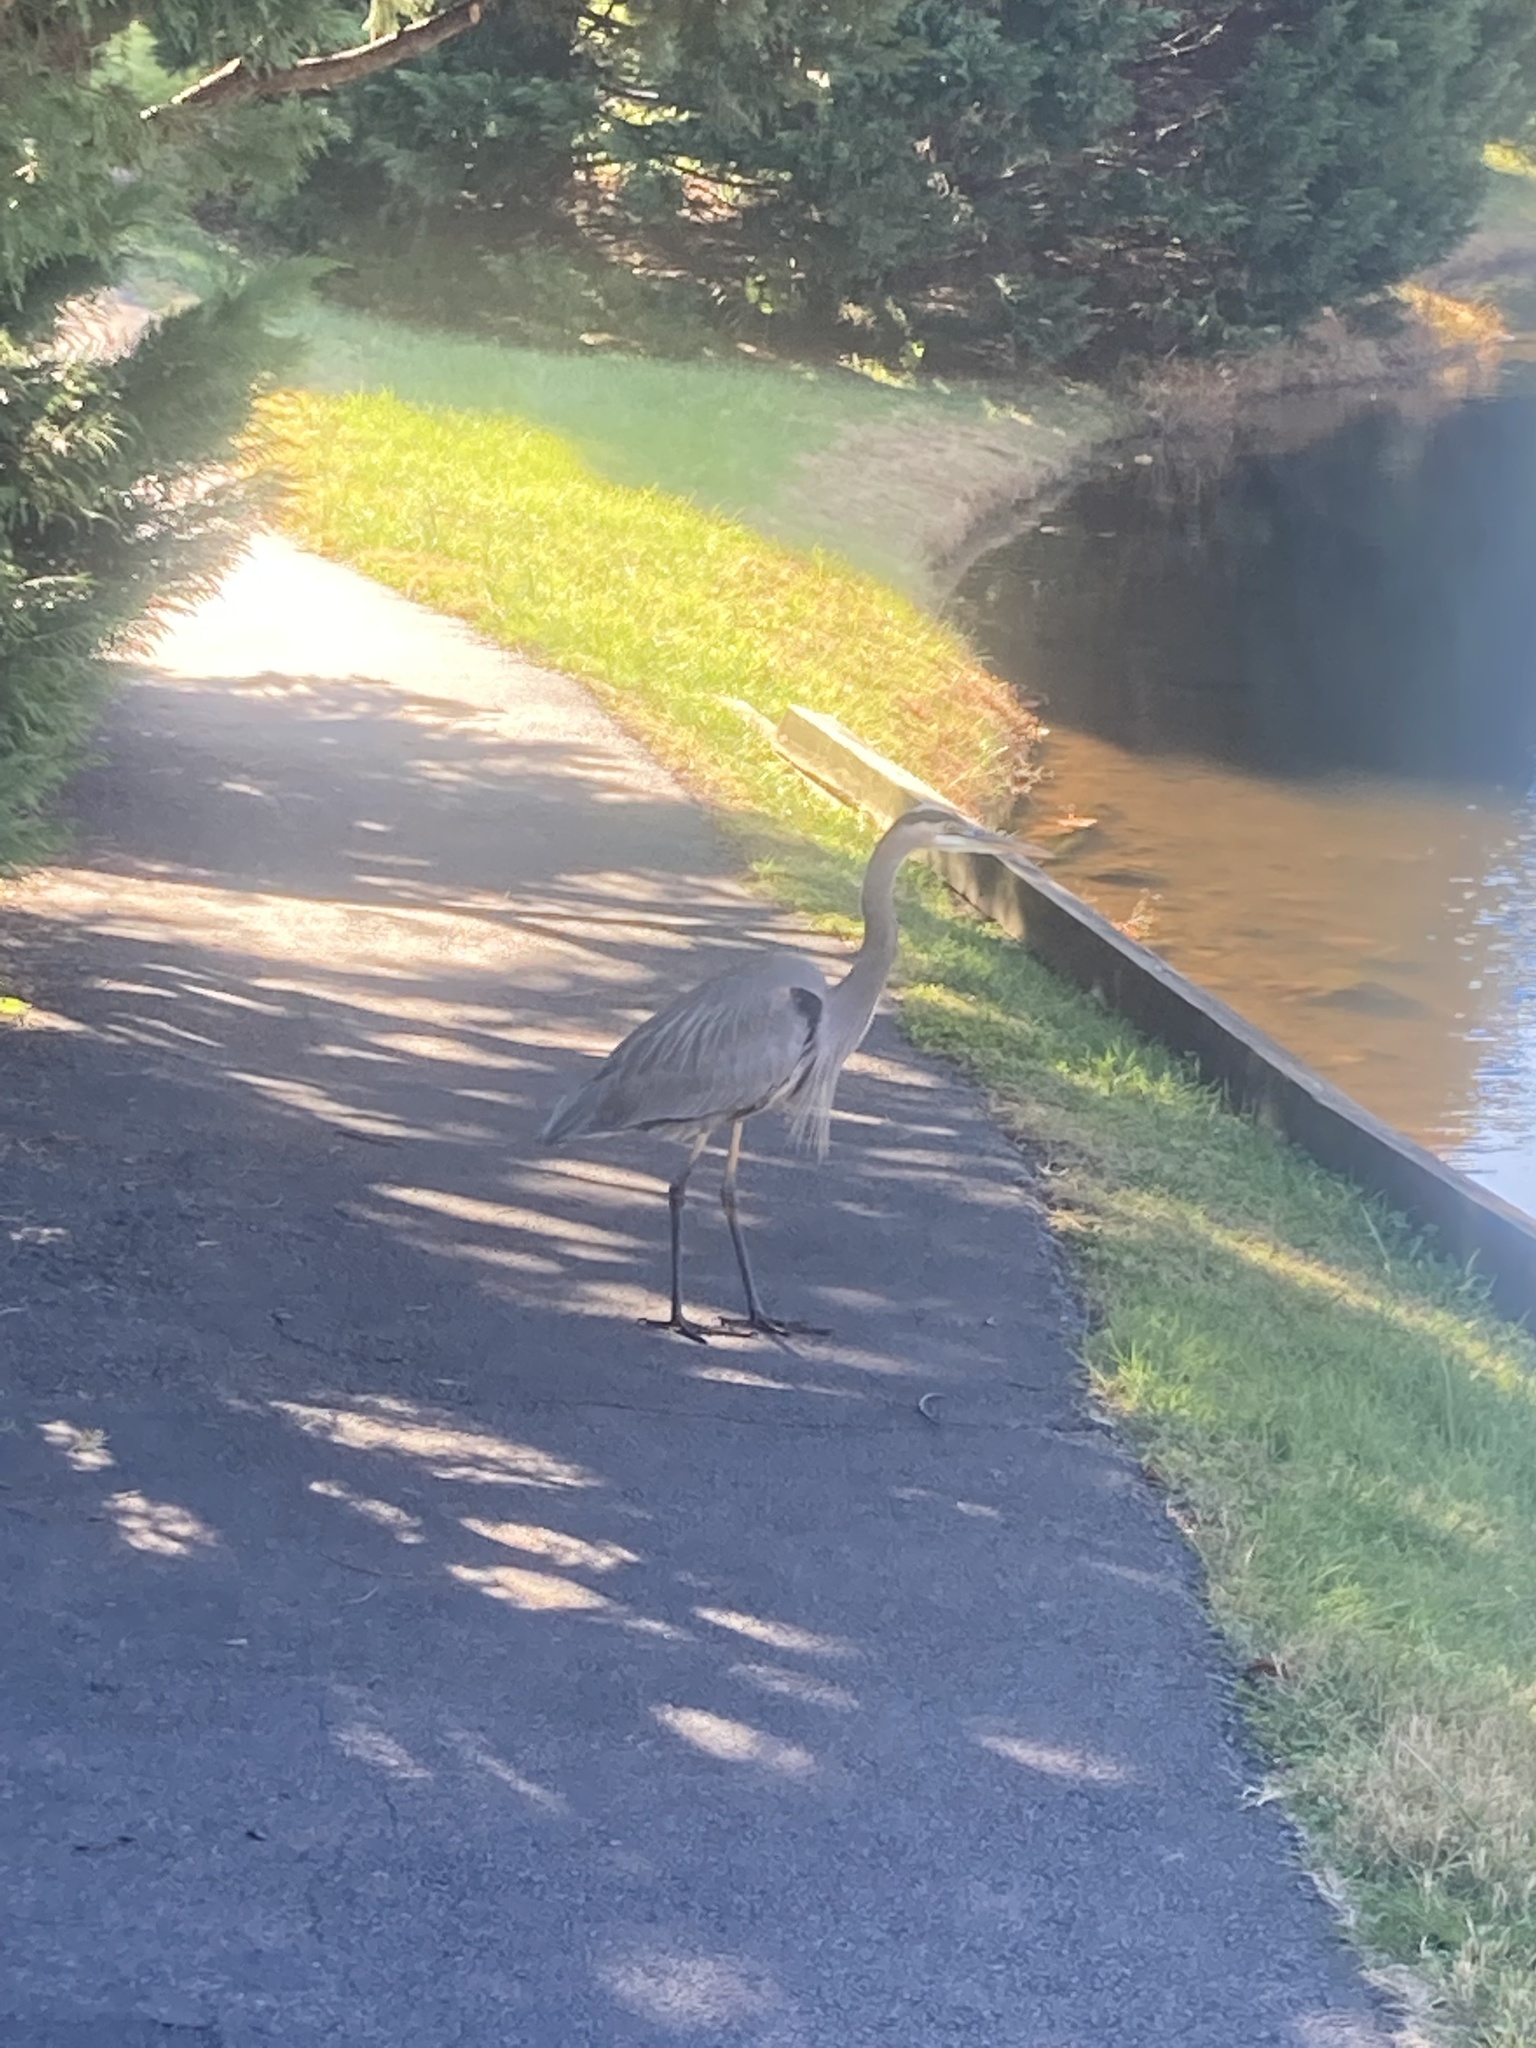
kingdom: Animalia
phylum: Chordata
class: Aves
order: Pelecaniformes
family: Ardeidae
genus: Ardea
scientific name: Ardea herodias
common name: Great blue heron
